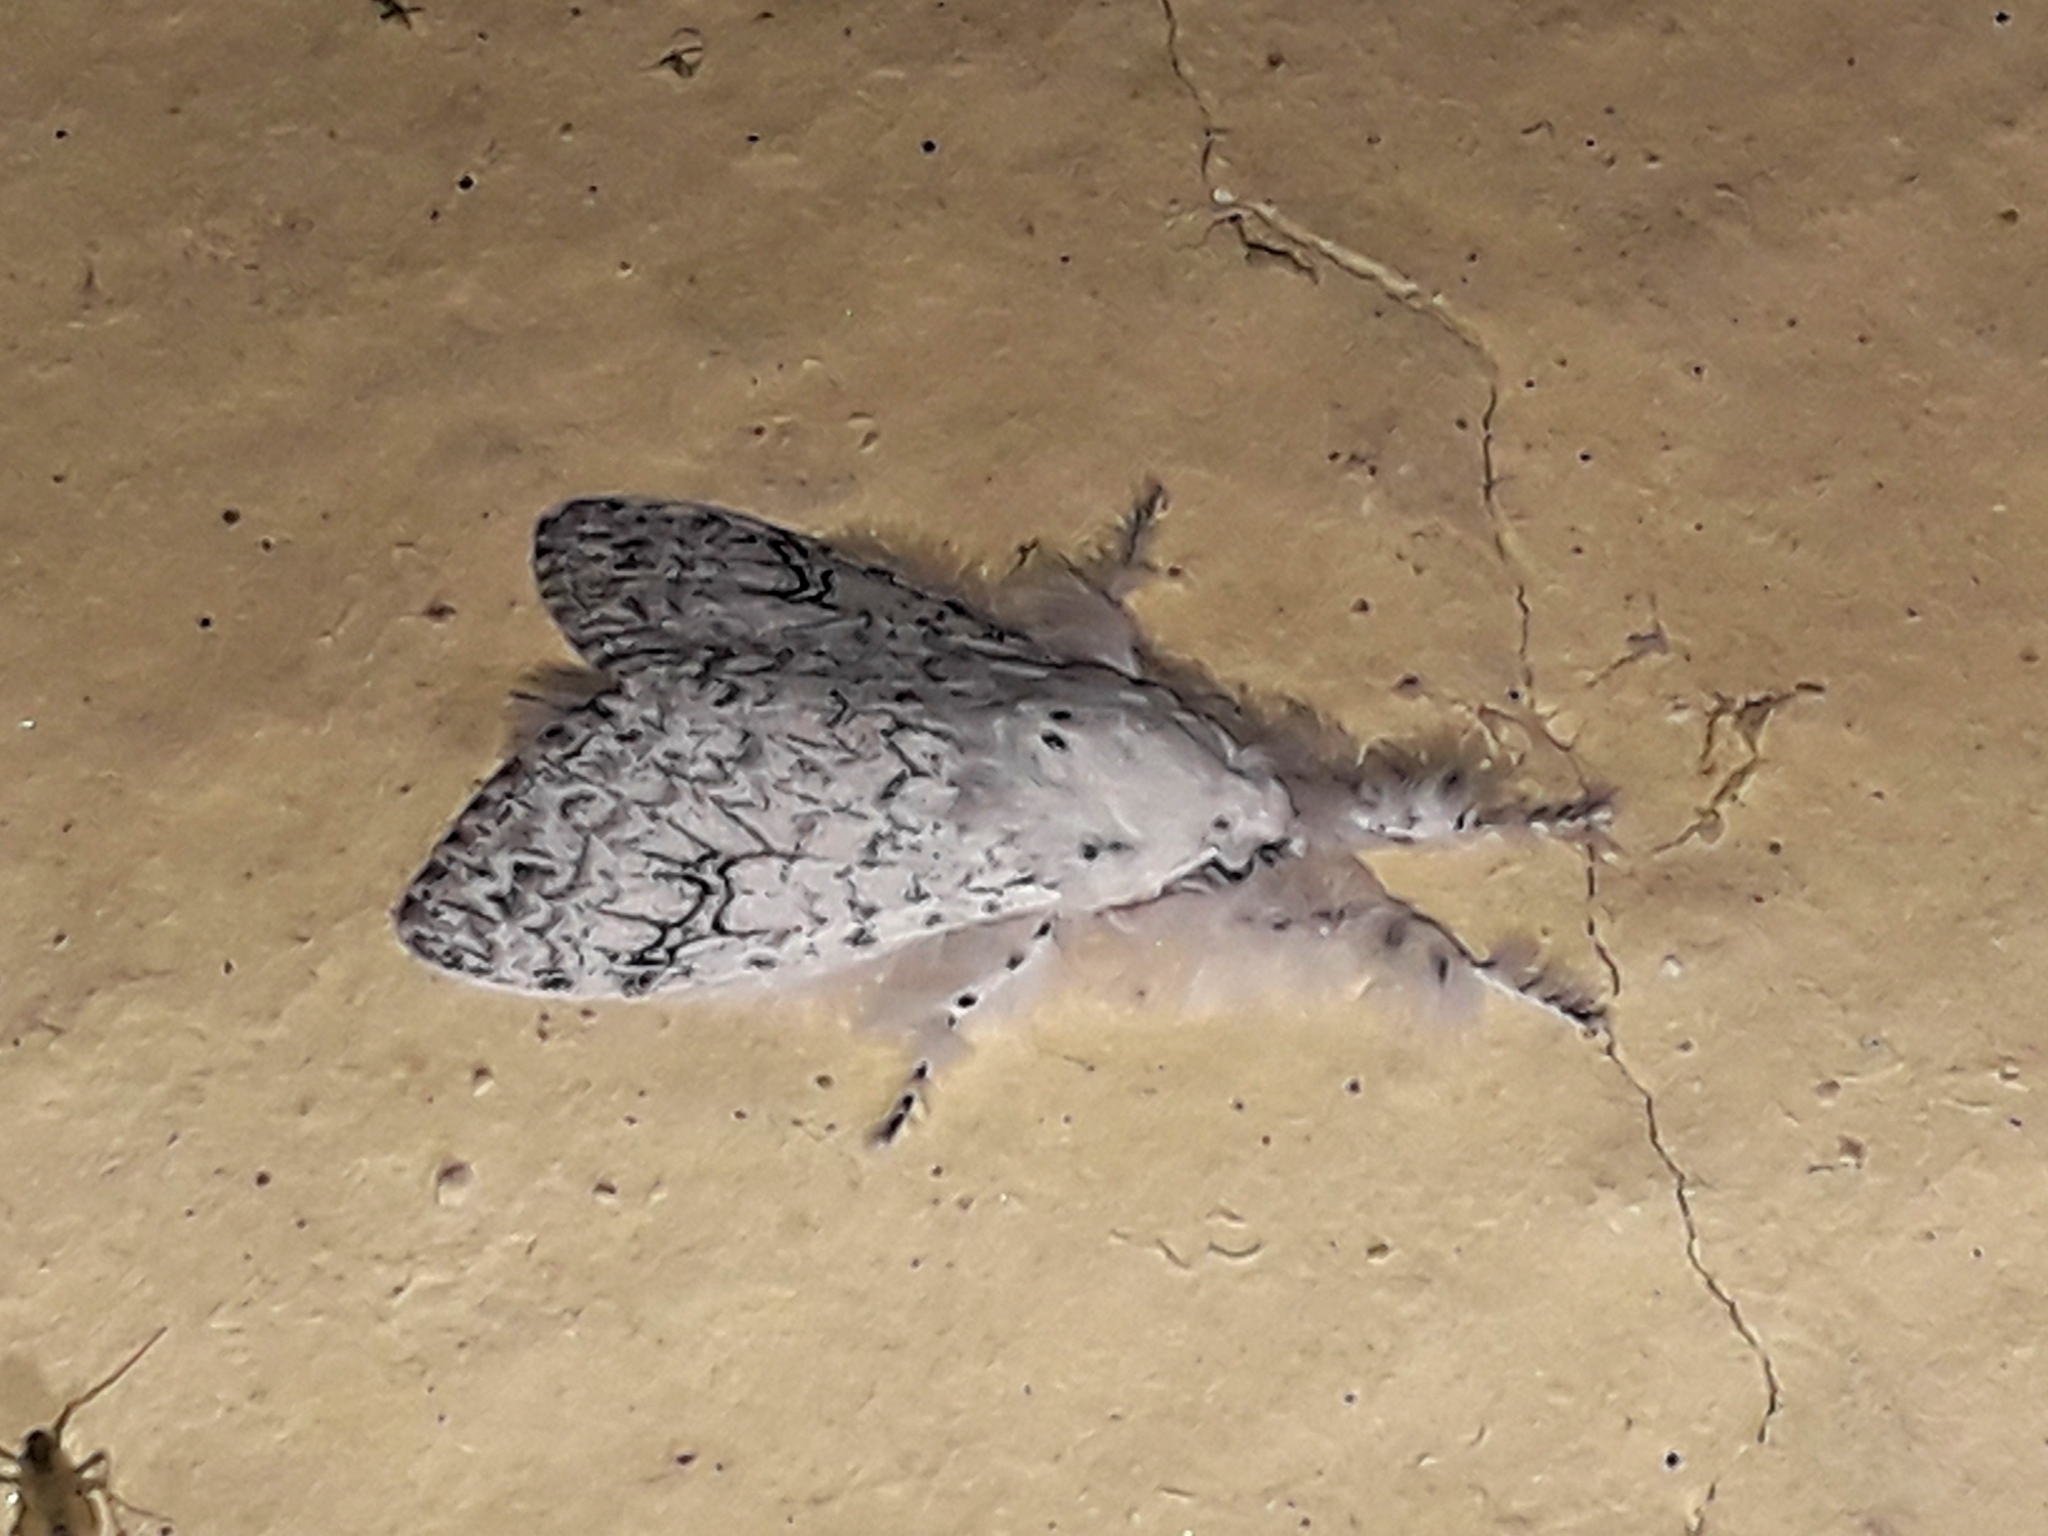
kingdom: Animalia
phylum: Arthropoda
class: Insecta
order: Lepidoptera
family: Erebidae
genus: Dasychira
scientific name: Dasychira georgiana
